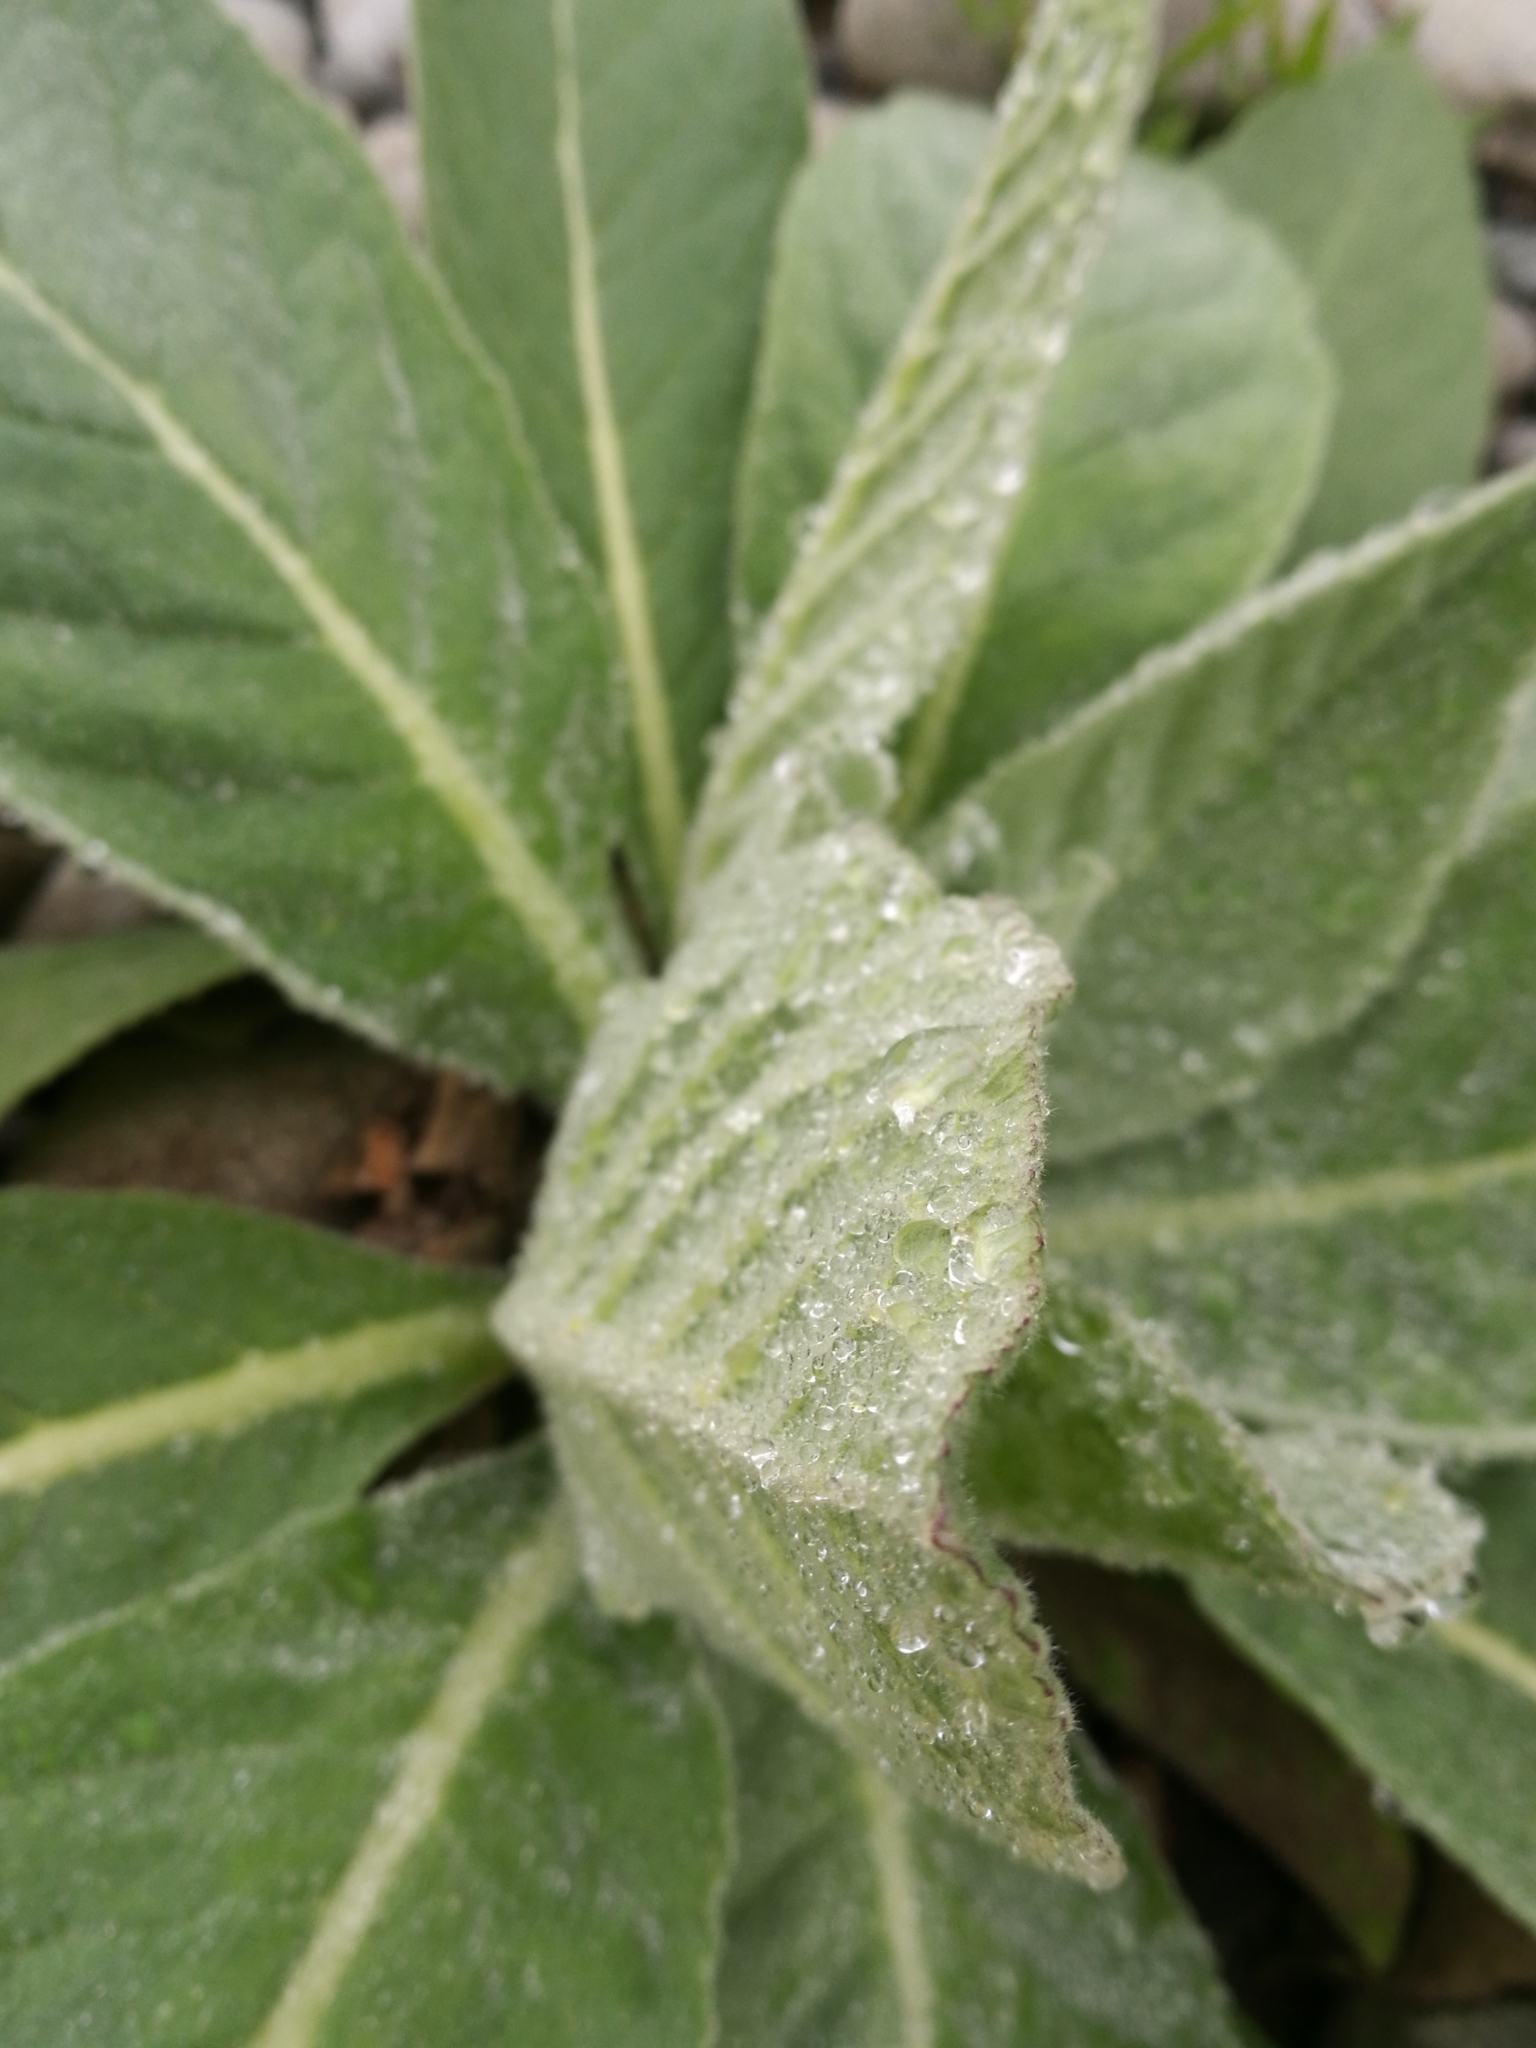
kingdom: Plantae
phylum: Tracheophyta
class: Magnoliopsida
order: Lamiales
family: Scrophulariaceae
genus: Verbascum
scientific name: Verbascum thapsus
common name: Common mullein
